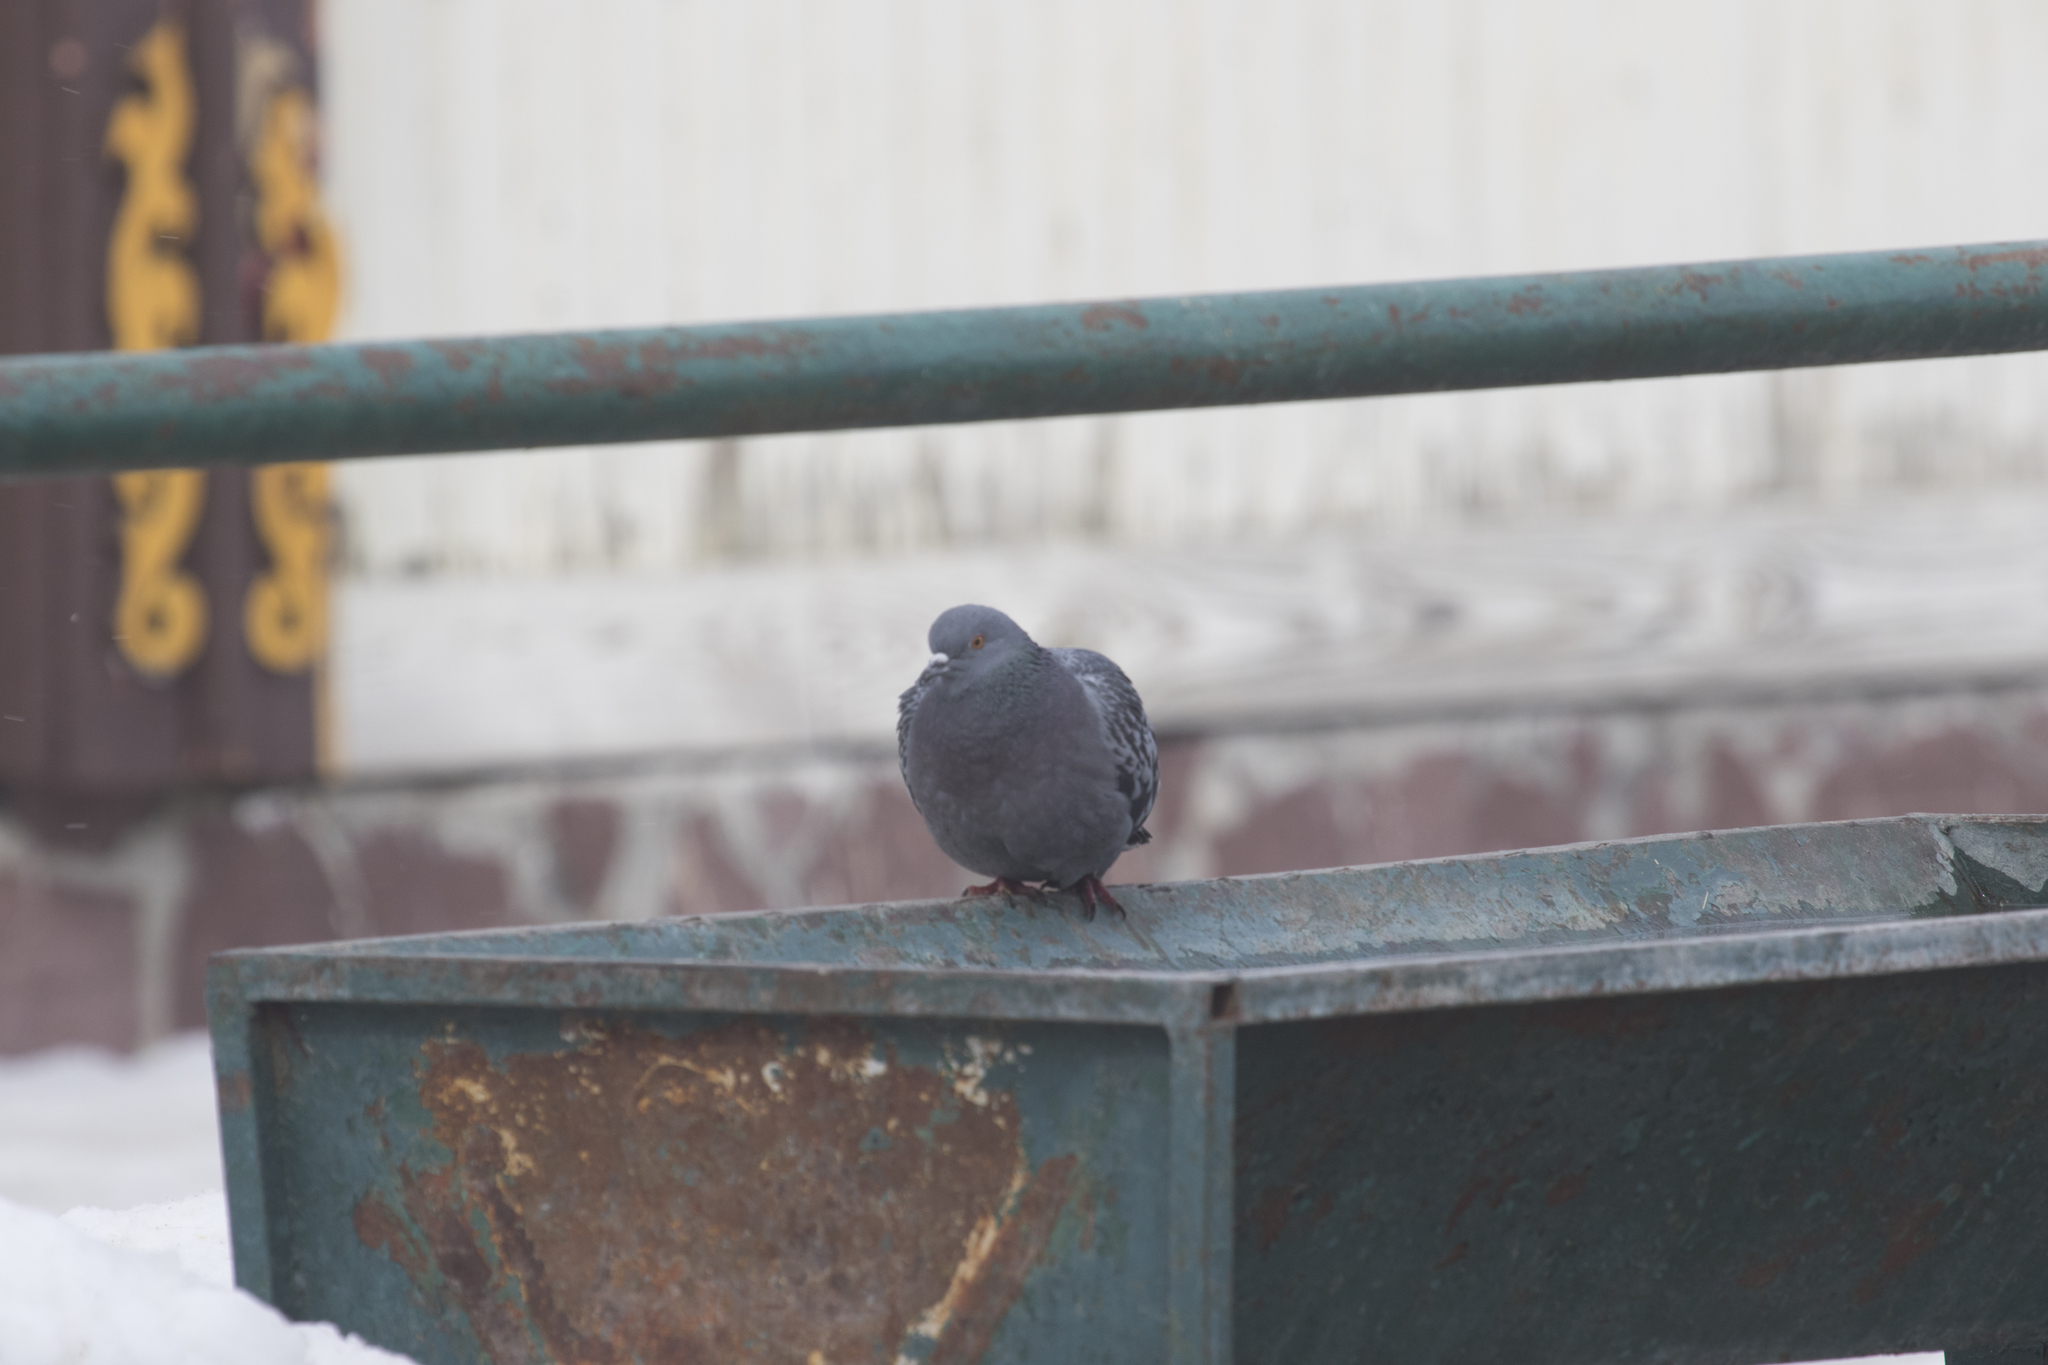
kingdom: Animalia
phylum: Chordata
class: Aves
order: Columbiformes
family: Columbidae
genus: Columba
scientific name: Columba livia
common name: Rock pigeon
